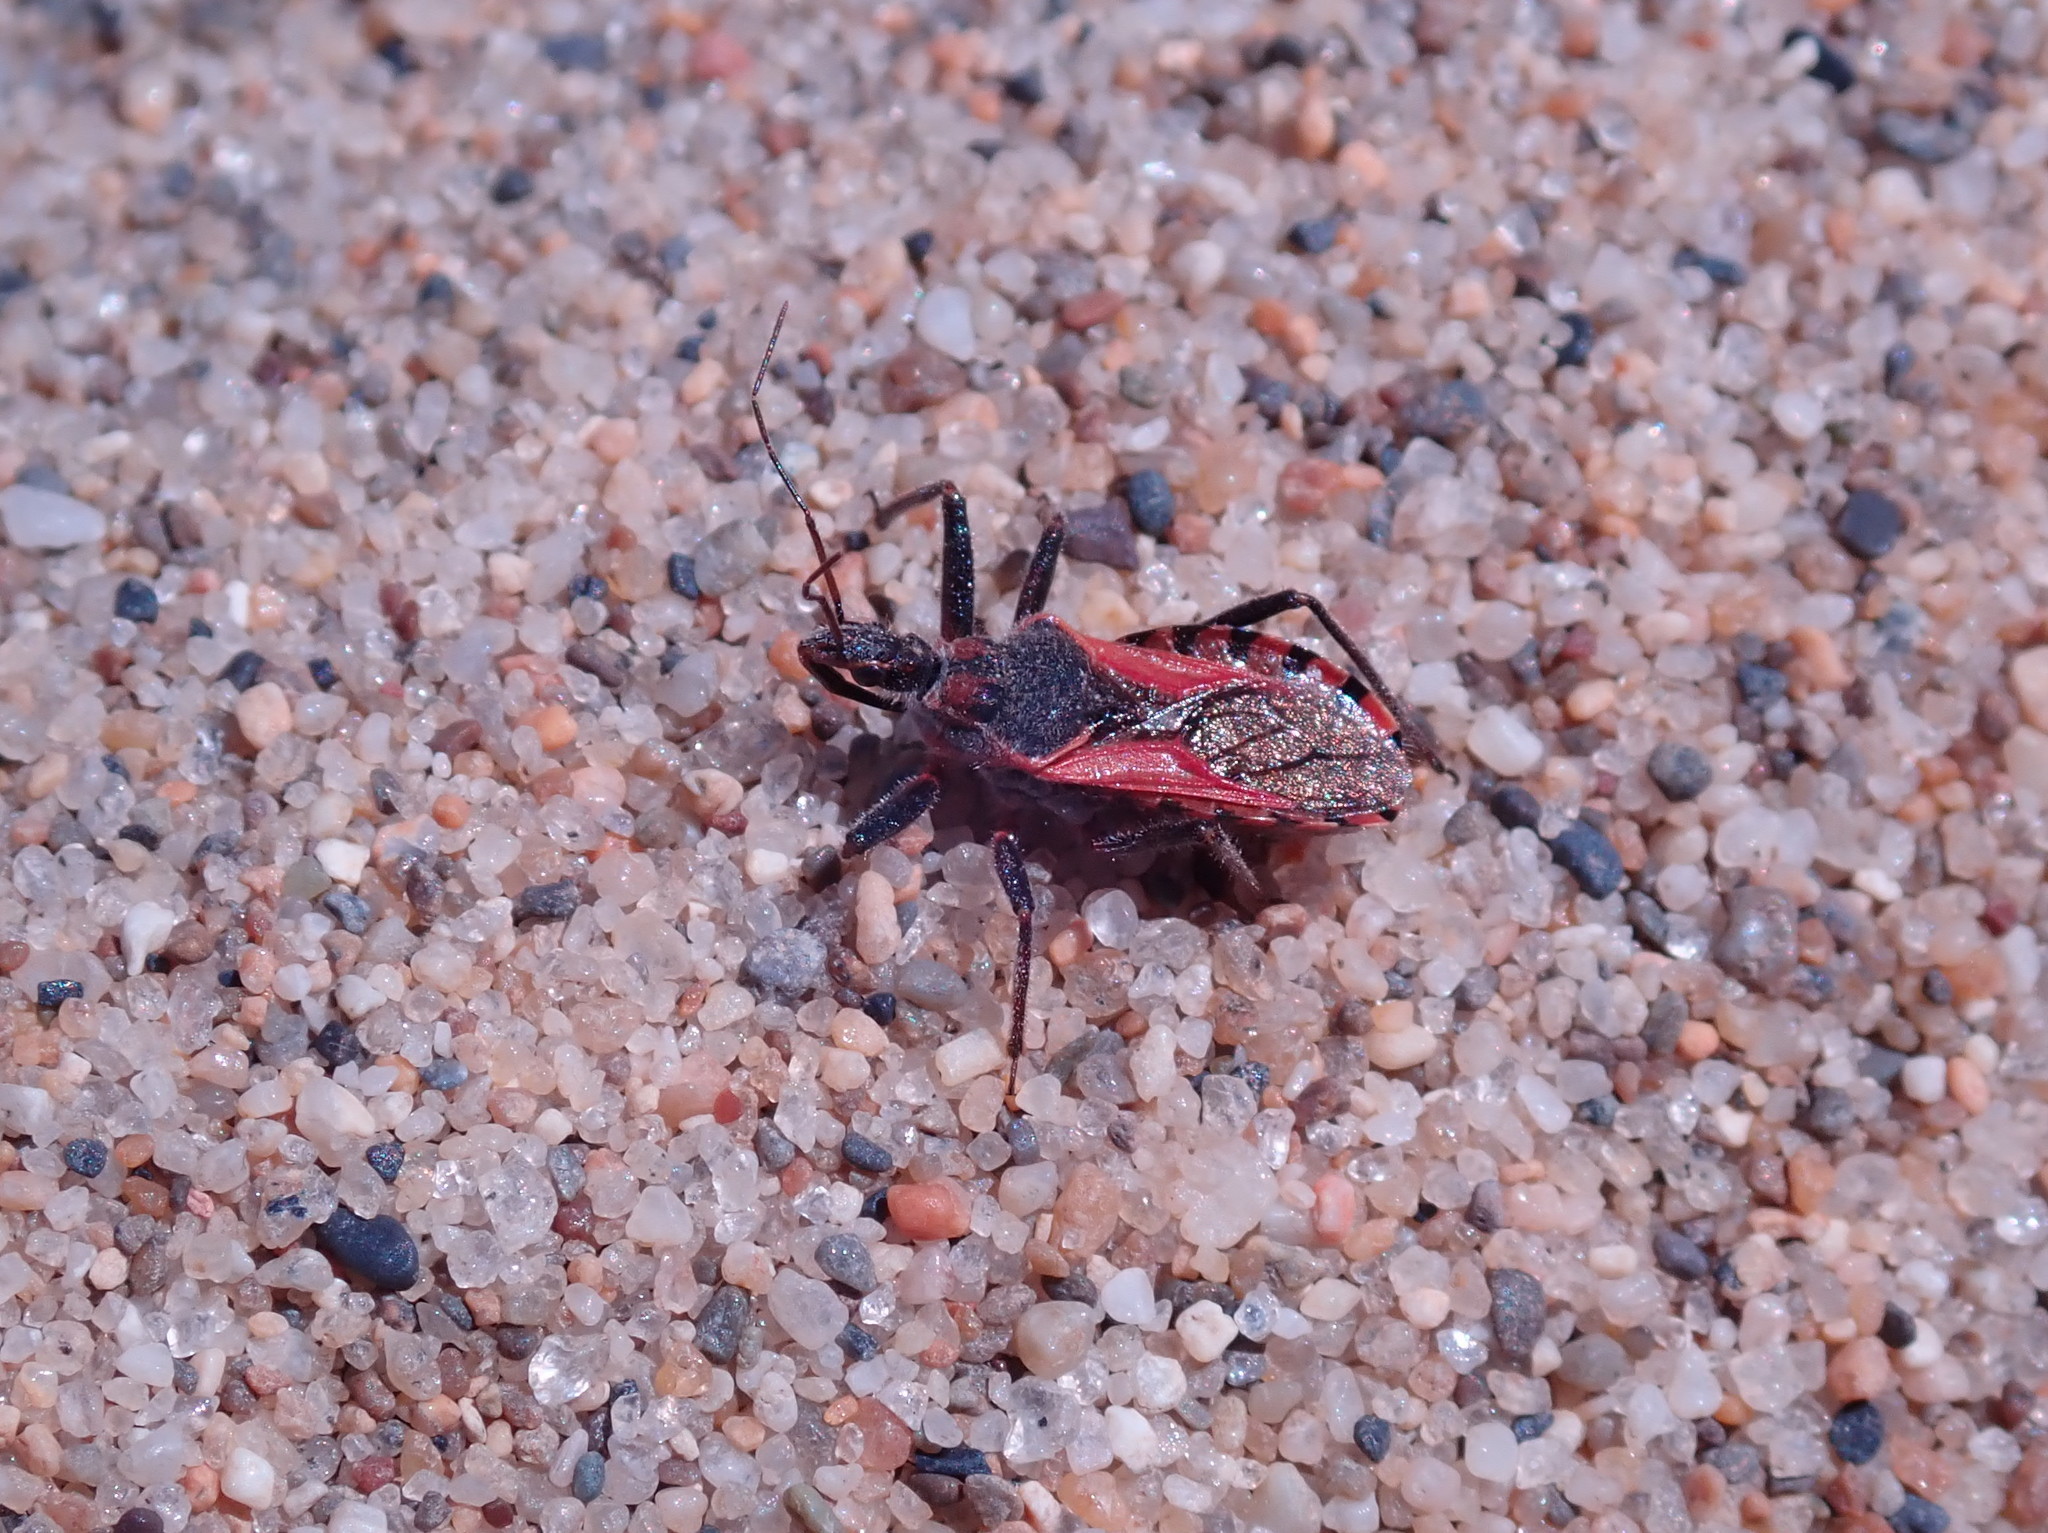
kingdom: Animalia
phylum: Arthropoda
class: Insecta
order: Hemiptera
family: Reduviidae
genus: Rhynocoris
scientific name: Rhynocoris ventralis
